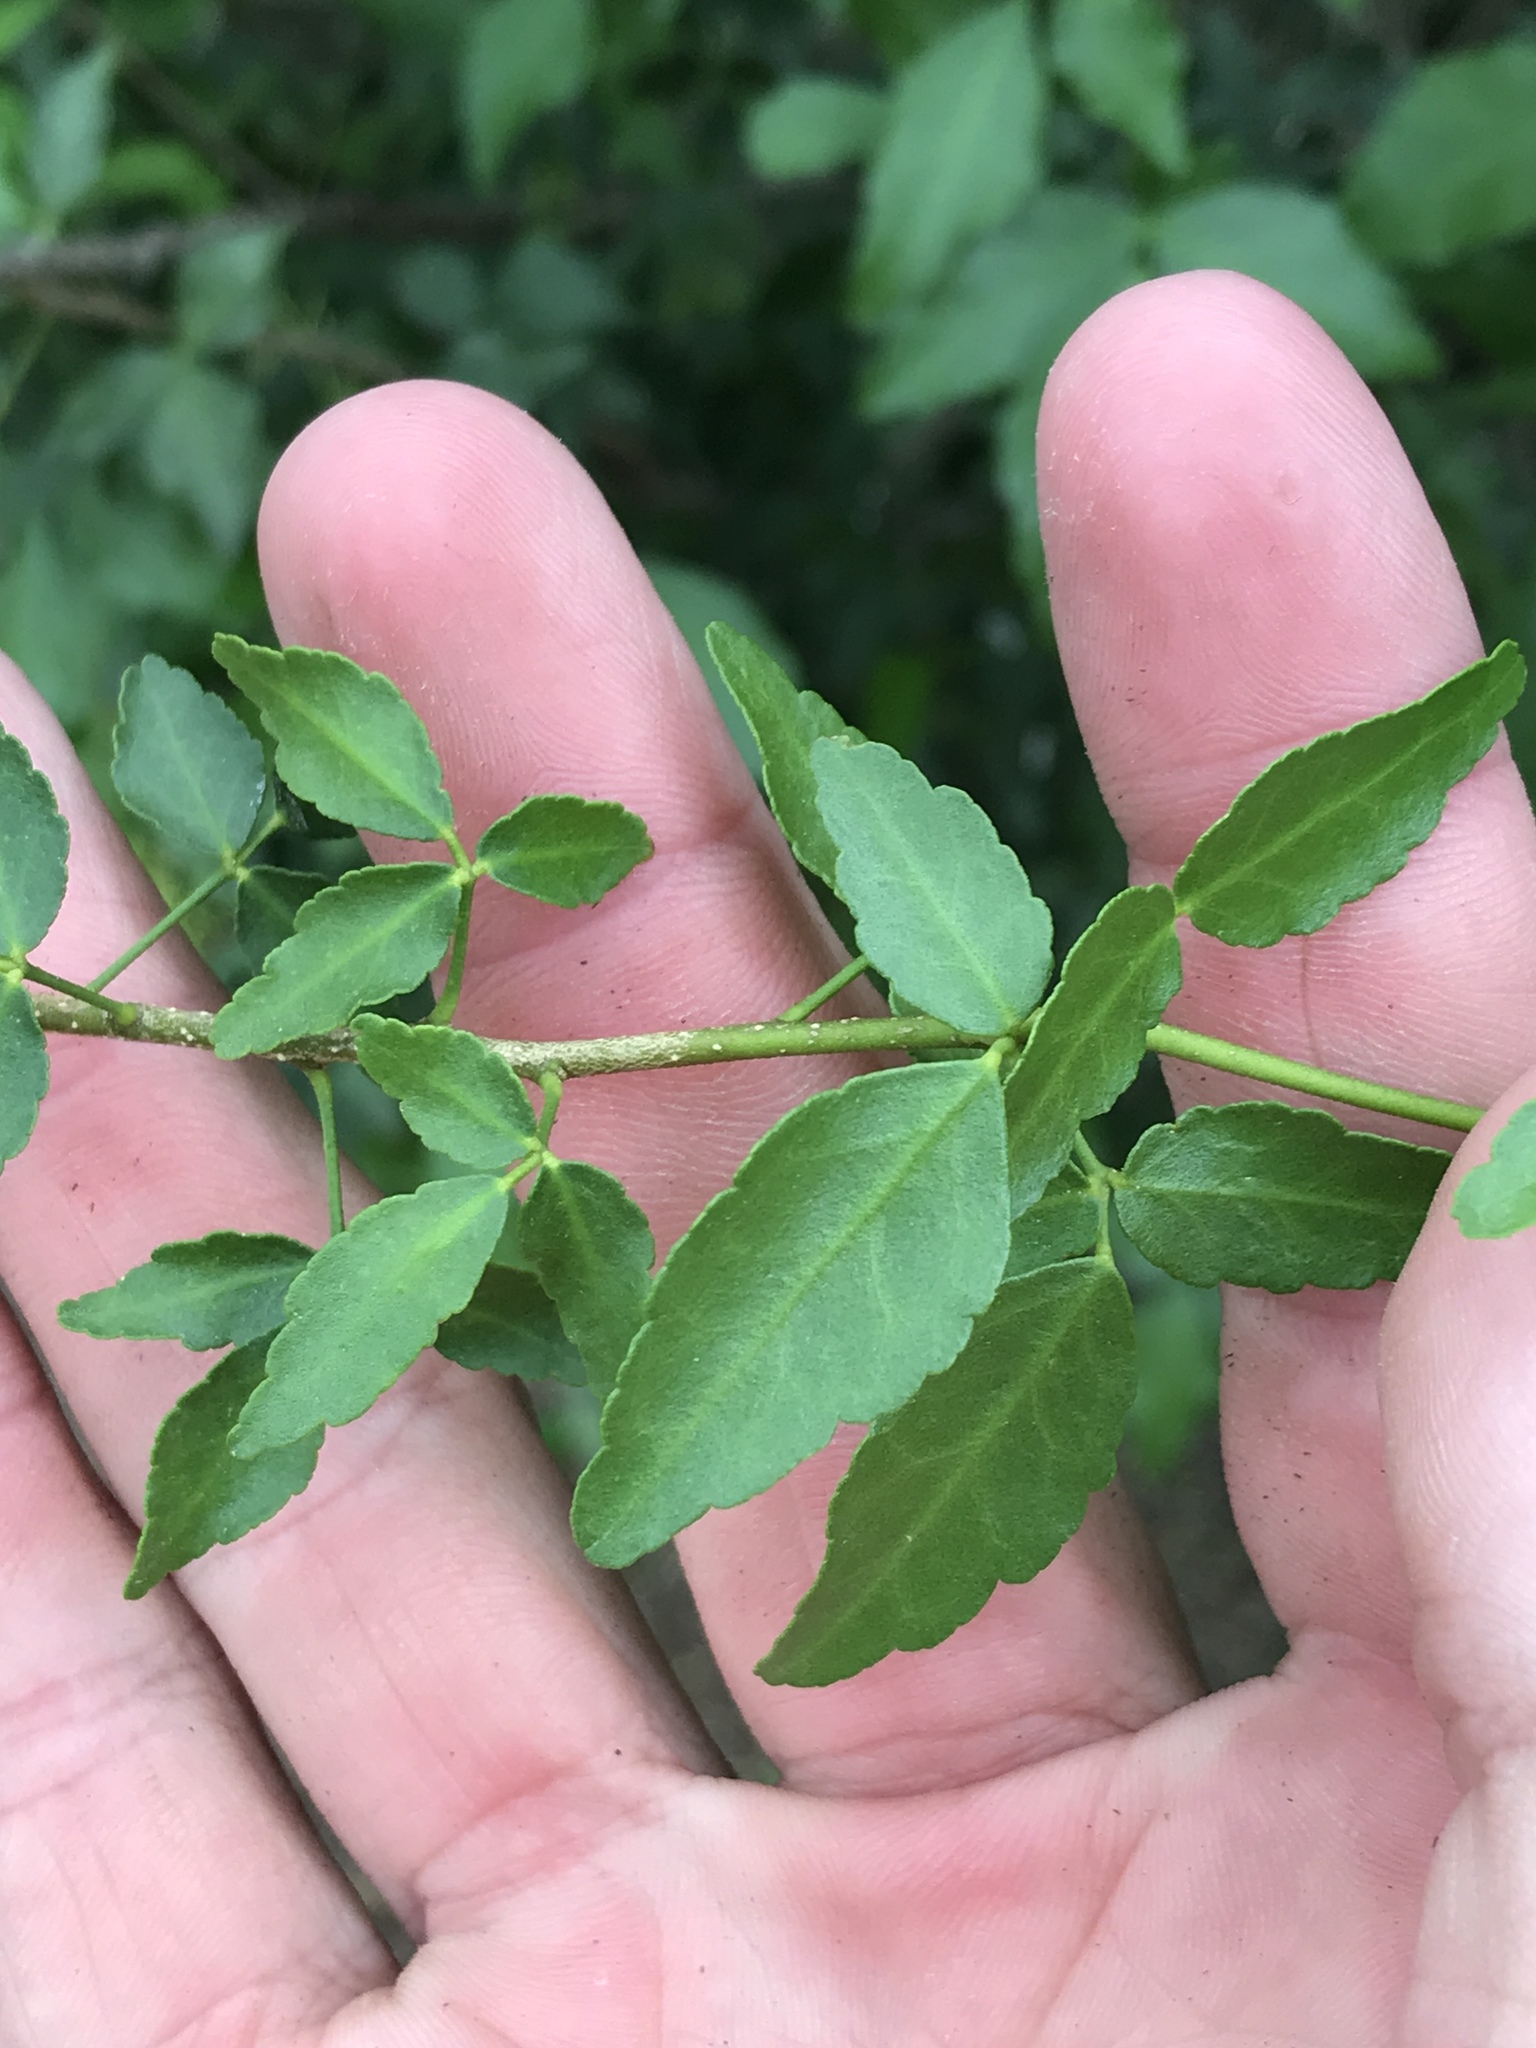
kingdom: Plantae
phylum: Tracheophyta
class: Magnoliopsida
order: Sapindales
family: Rutaceae
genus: Amyris
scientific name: Amyris texana
